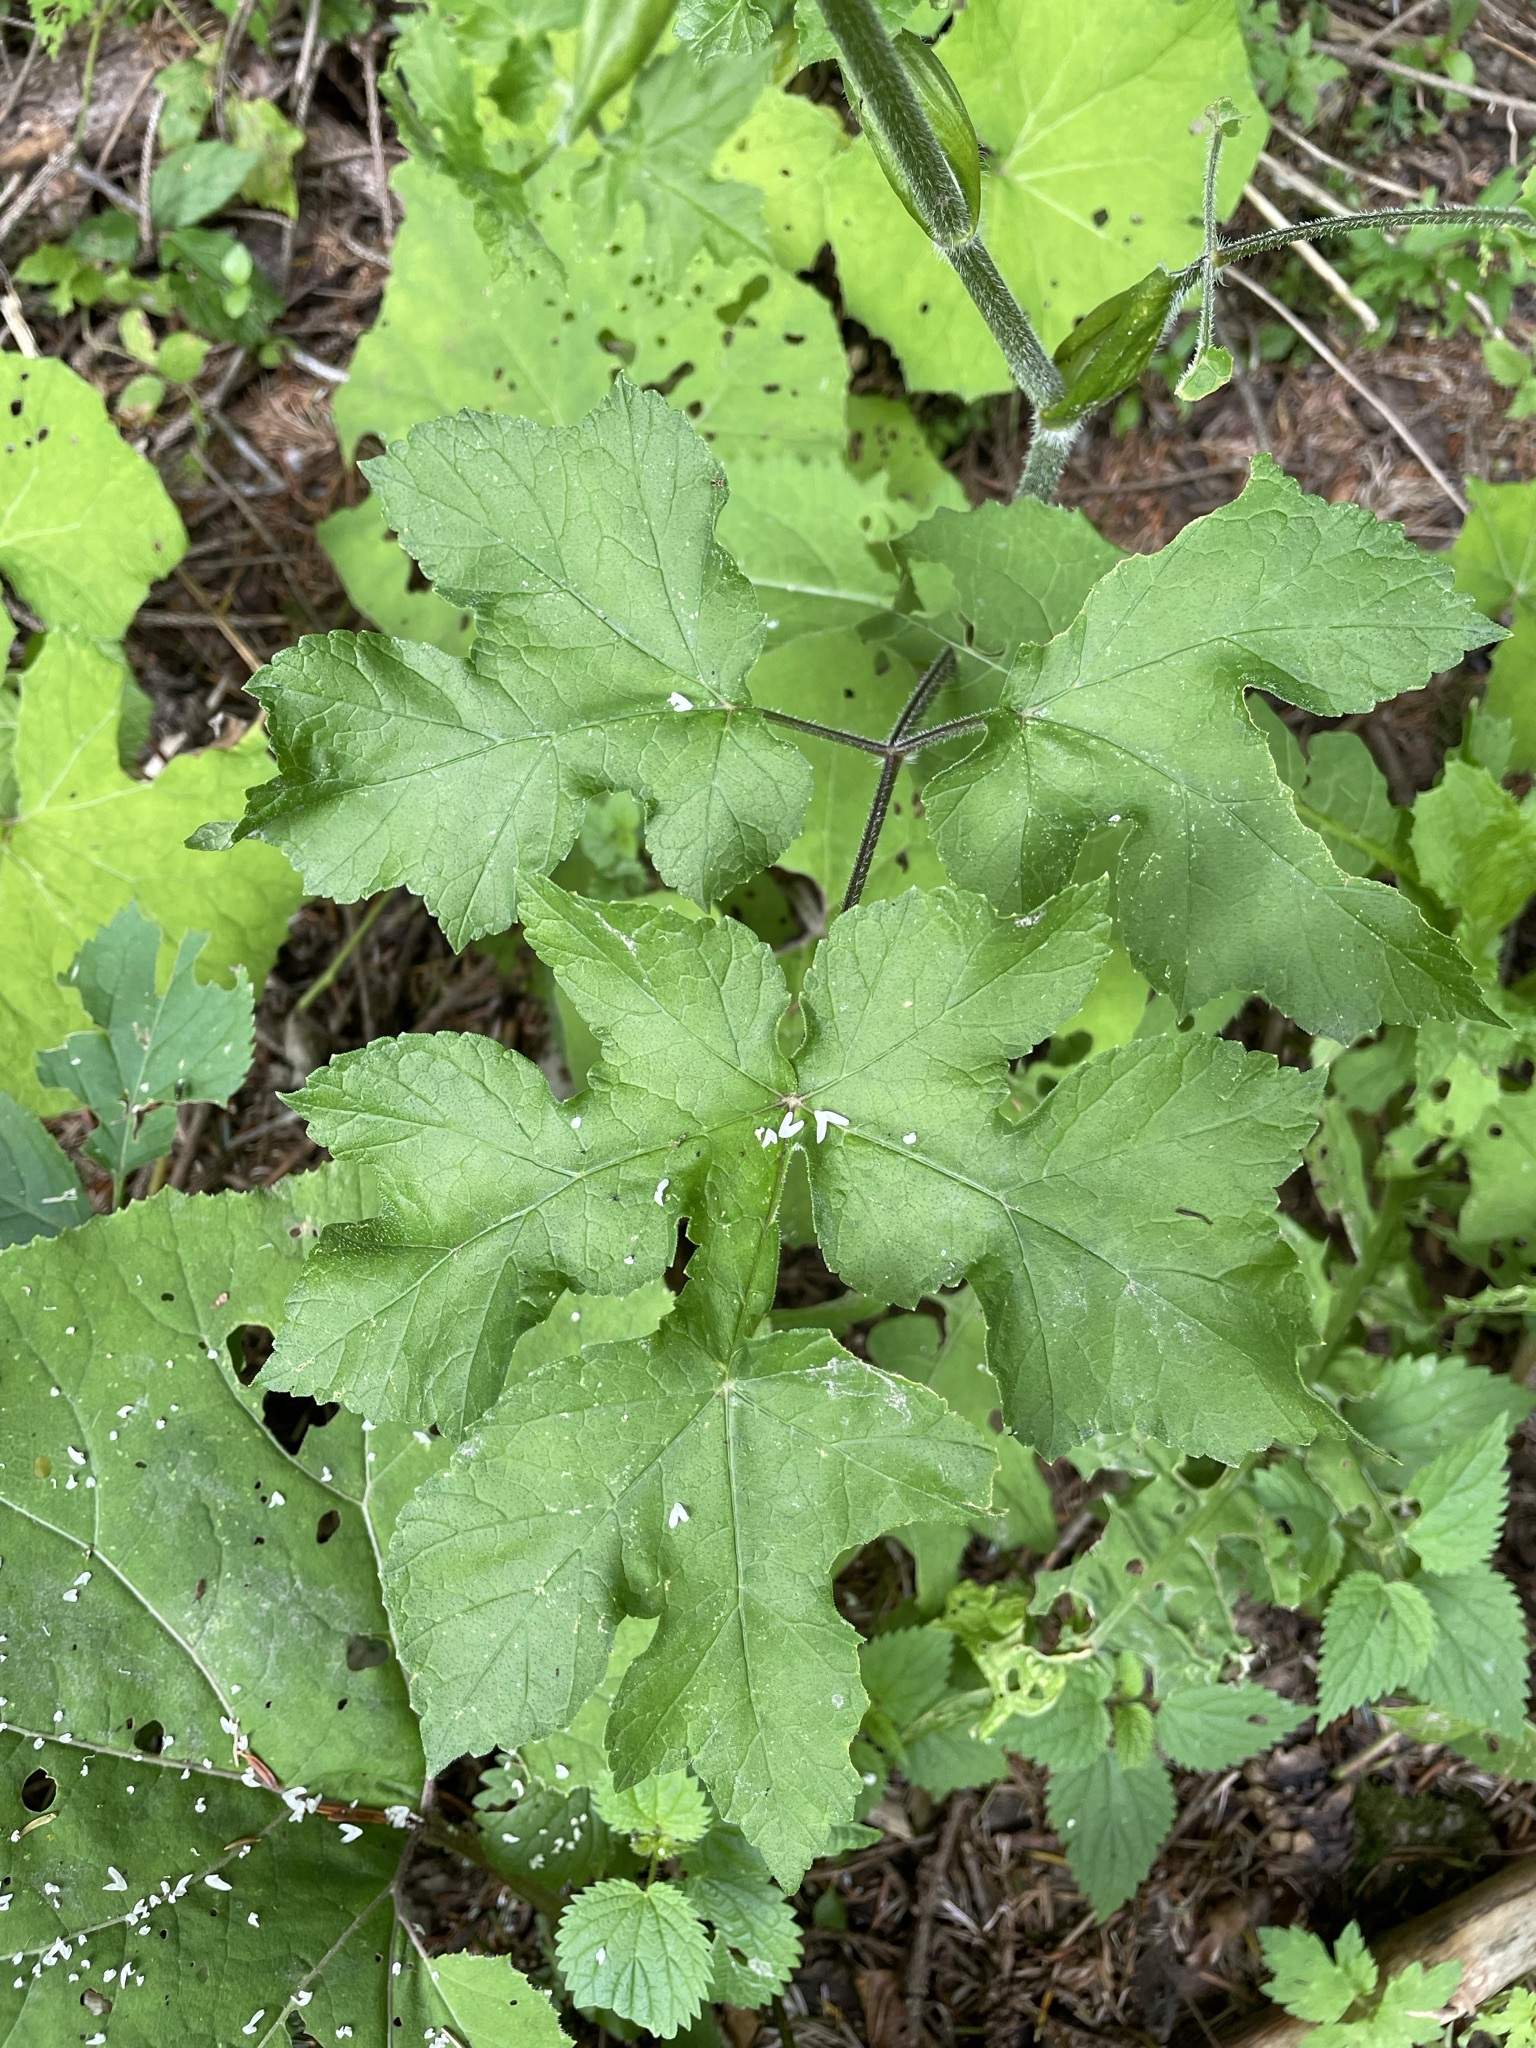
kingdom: Plantae
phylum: Tracheophyta
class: Magnoliopsida
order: Apiales
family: Apiaceae
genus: Heracleum
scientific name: Heracleum sphondylium
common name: Hogweed
